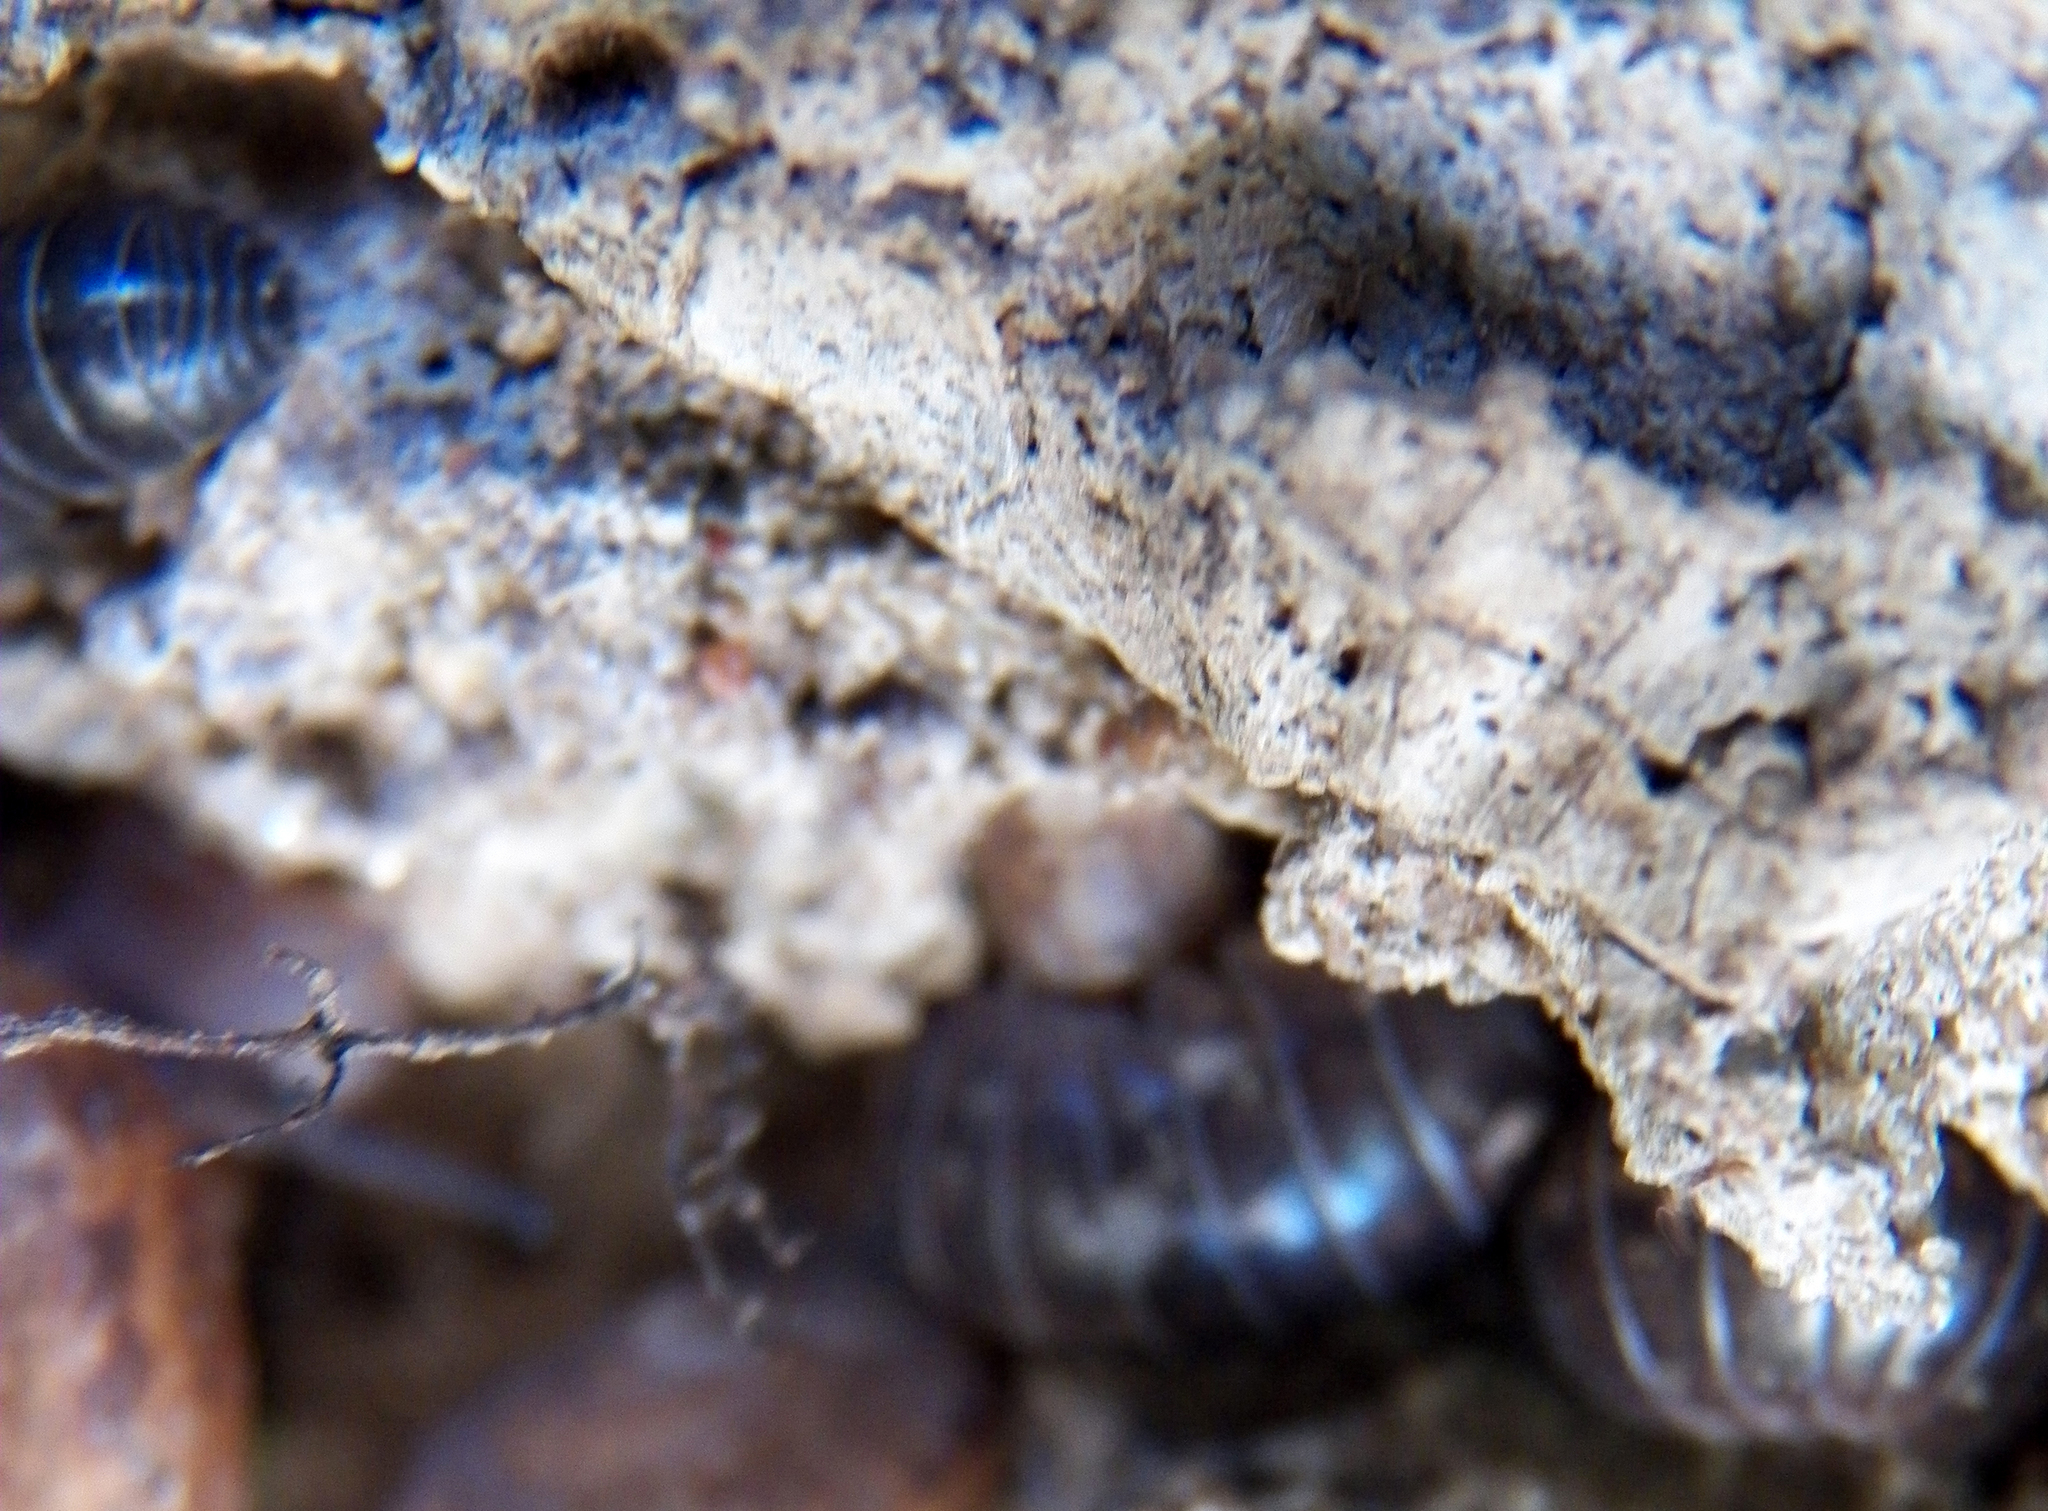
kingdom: Animalia
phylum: Arthropoda
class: Malacostraca
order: Isopoda
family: Armadillidiidae
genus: Armadillidium
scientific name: Armadillidium vulgare
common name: Common pill woodlouse
